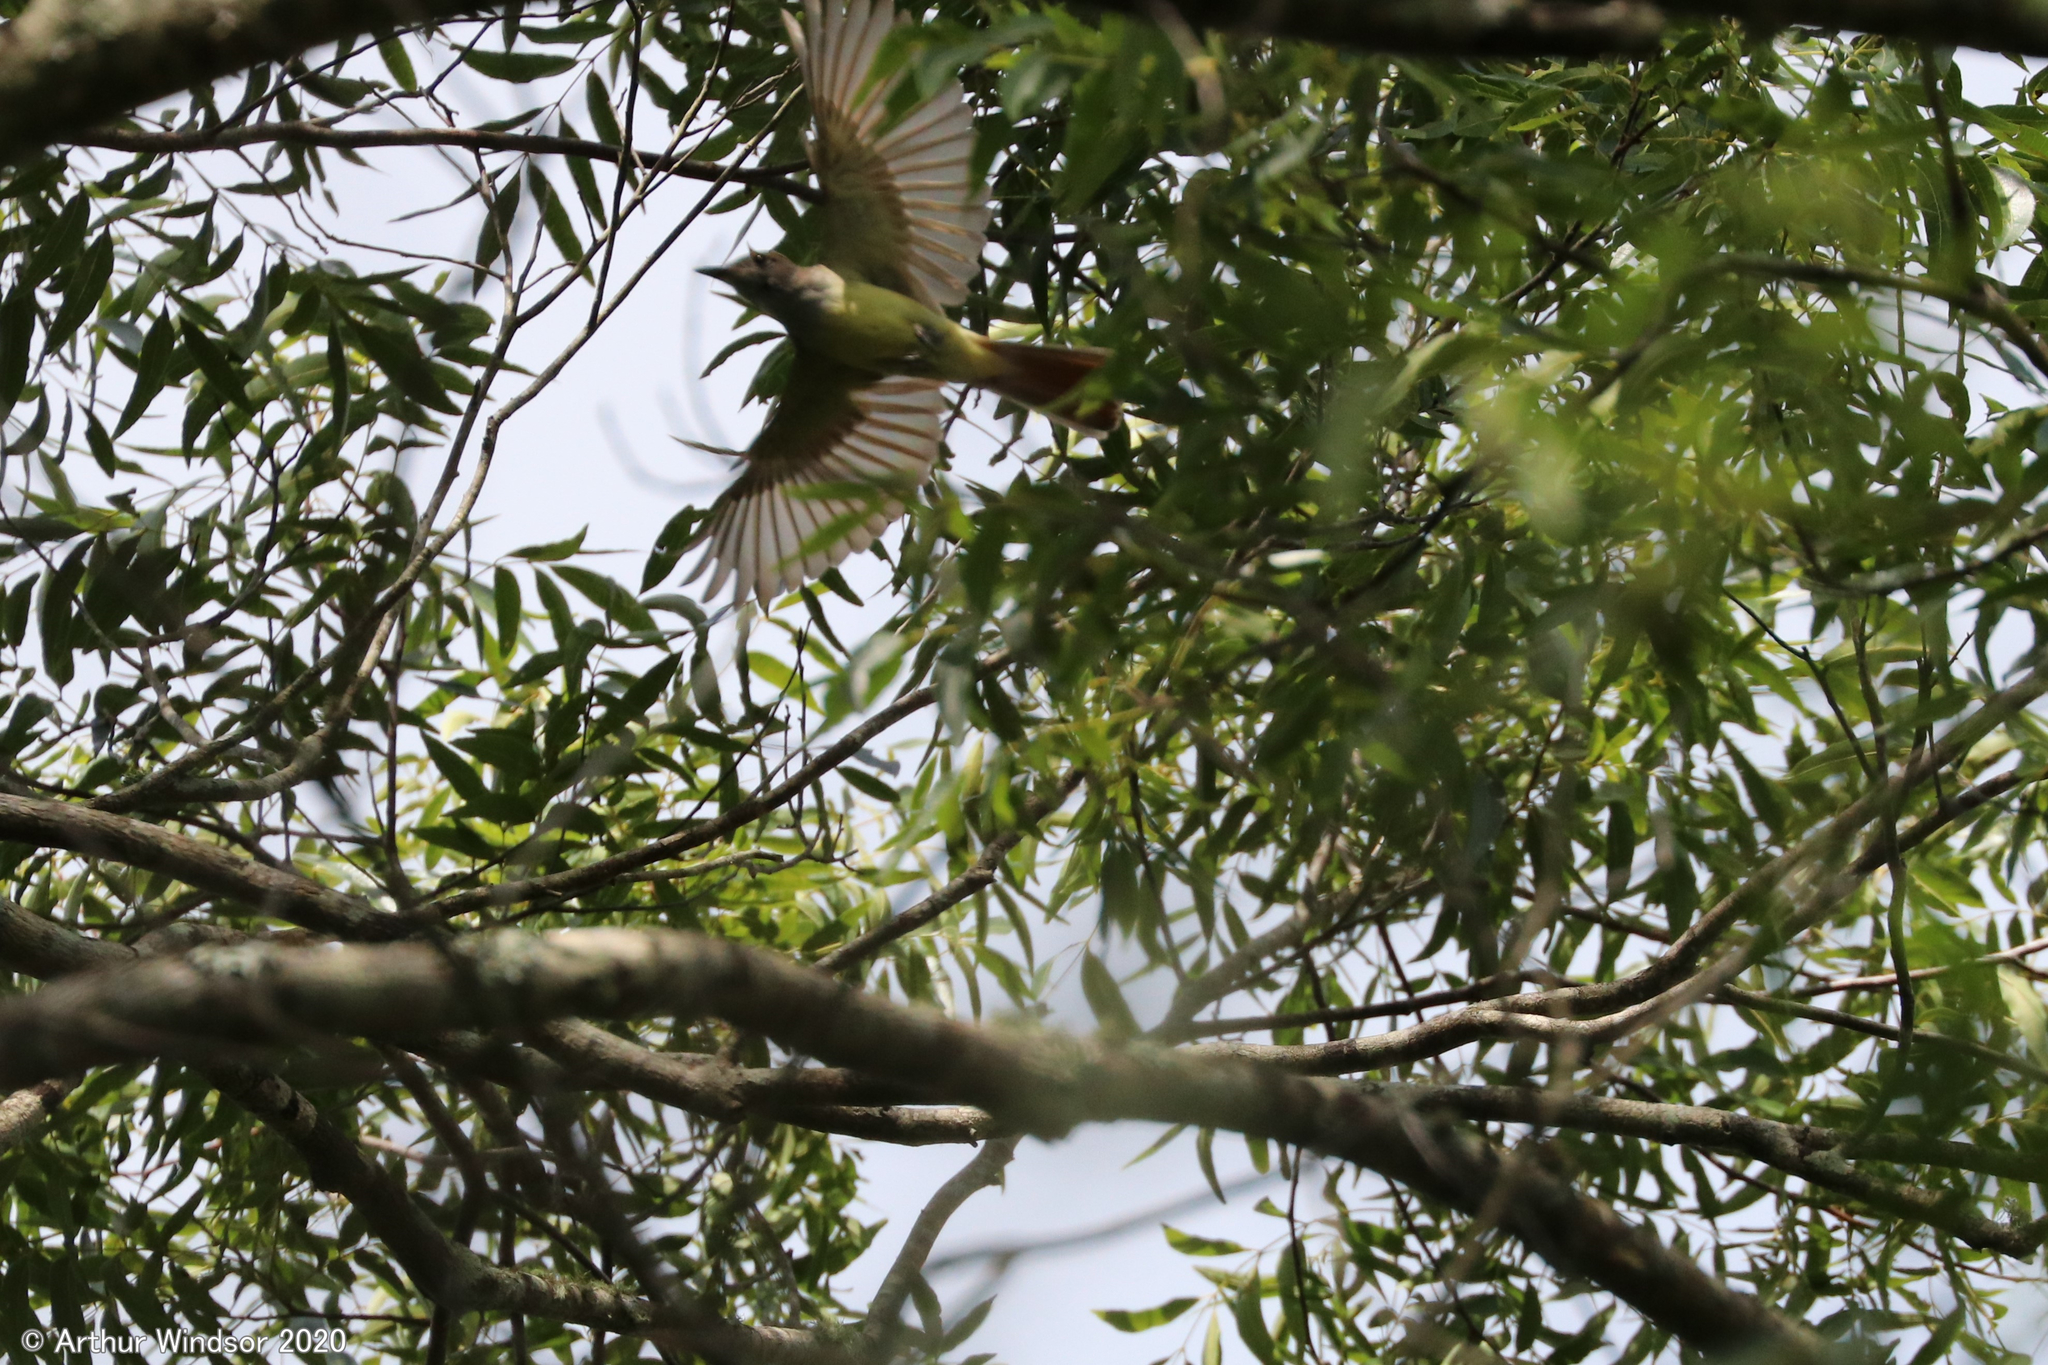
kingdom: Animalia
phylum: Chordata
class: Aves
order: Passeriformes
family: Tyrannidae
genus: Myiarchus
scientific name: Myiarchus crinitus
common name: Great crested flycatcher
